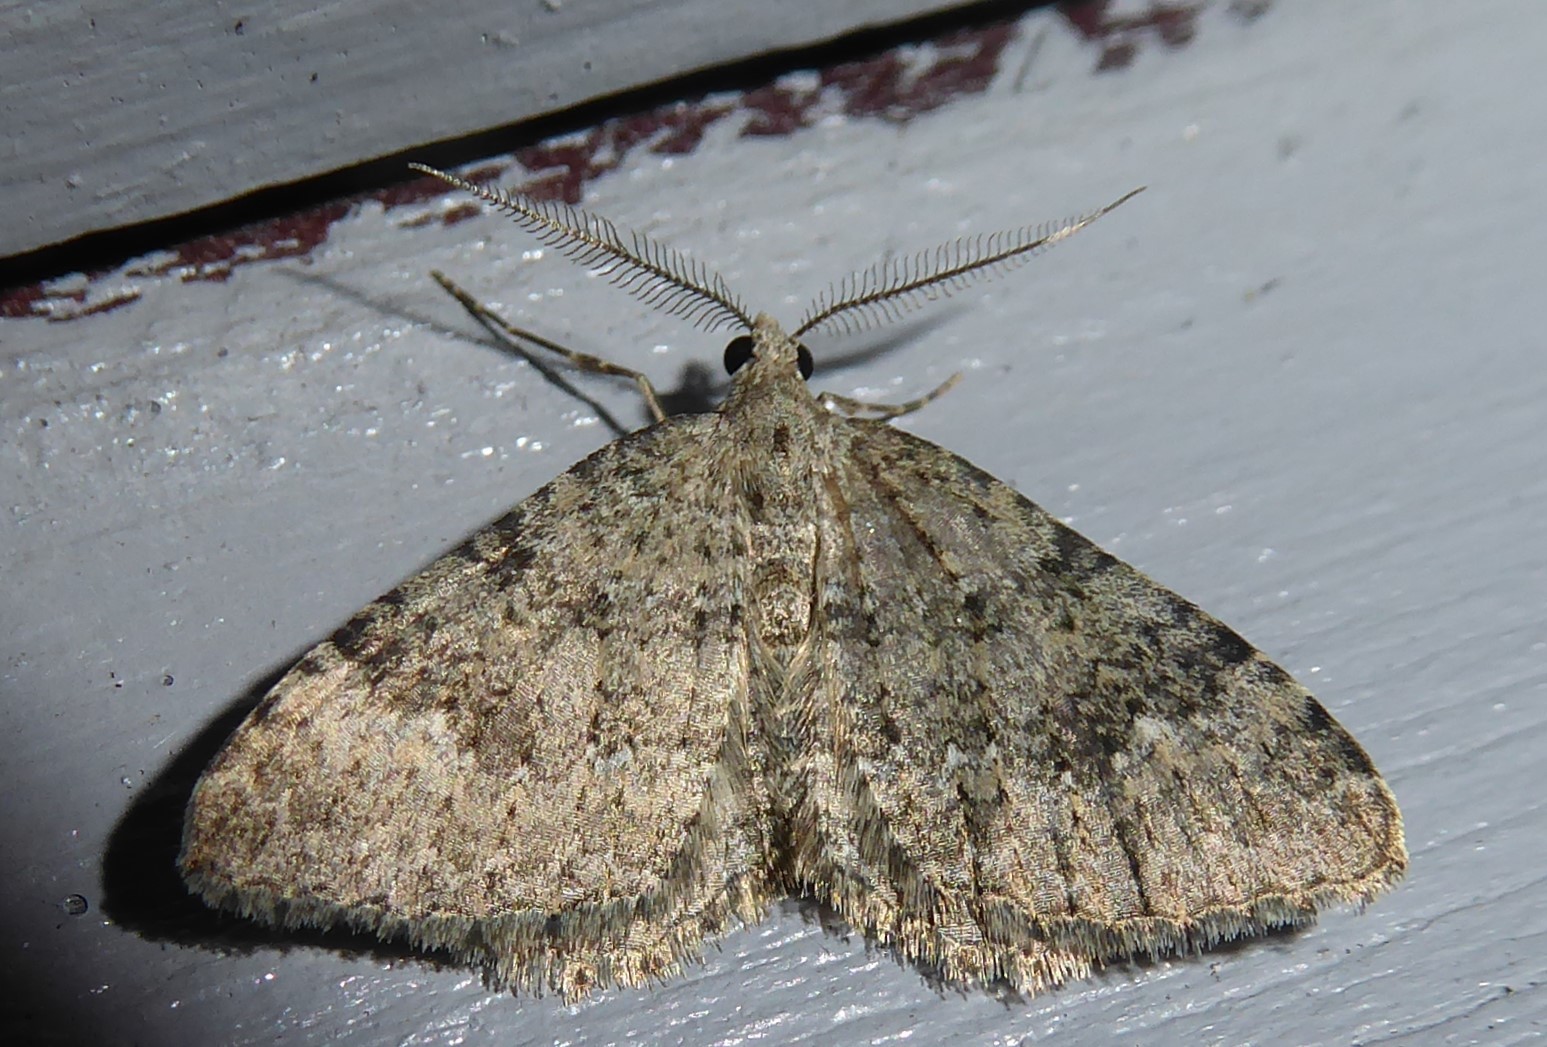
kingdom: Animalia
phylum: Arthropoda
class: Insecta
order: Lepidoptera
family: Geometridae
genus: Helastia
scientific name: Helastia corcularia
